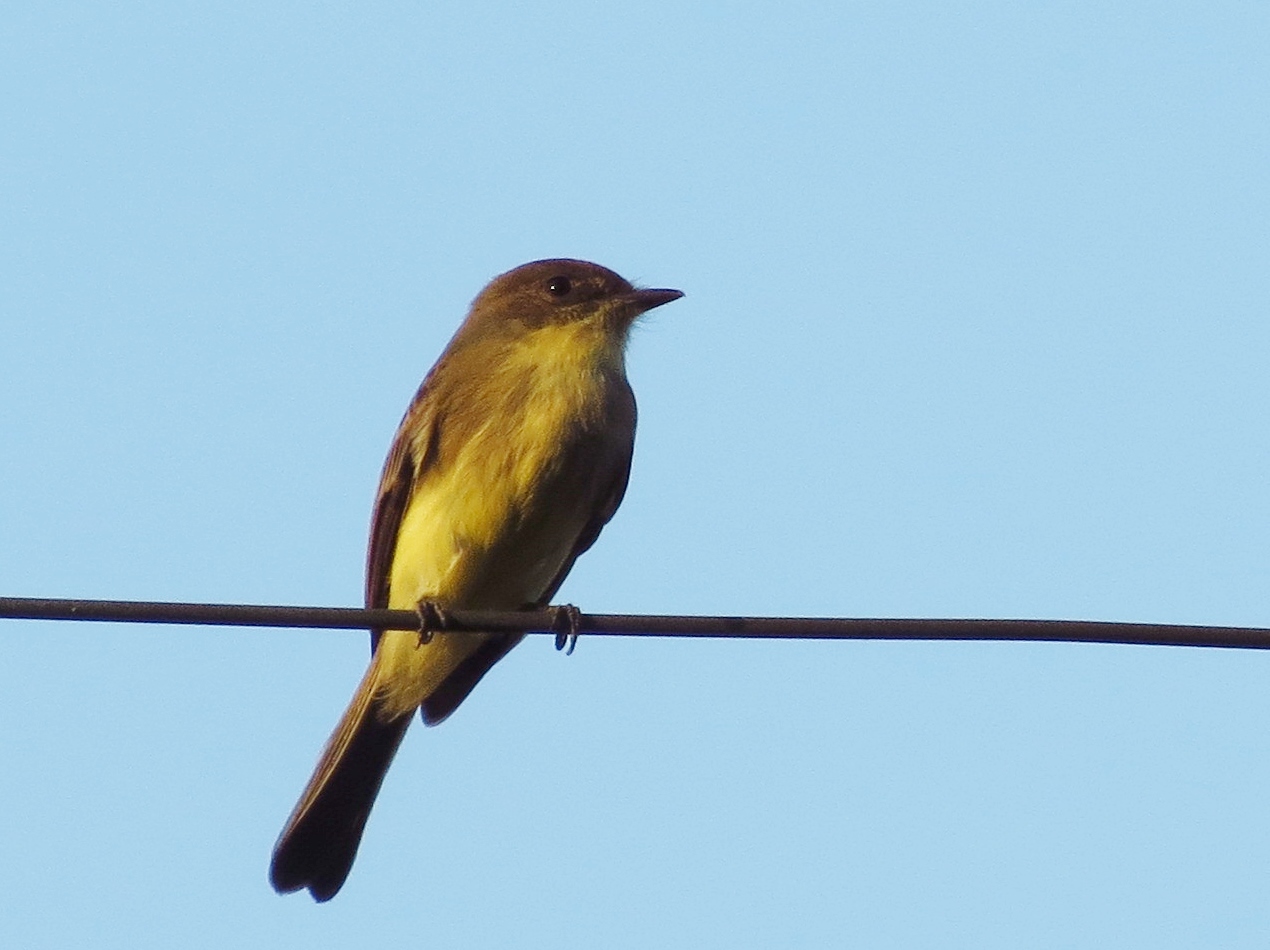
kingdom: Animalia
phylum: Chordata
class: Aves
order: Passeriformes
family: Tyrannidae
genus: Sayornis
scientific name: Sayornis phoebe
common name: Eastern phoebe
